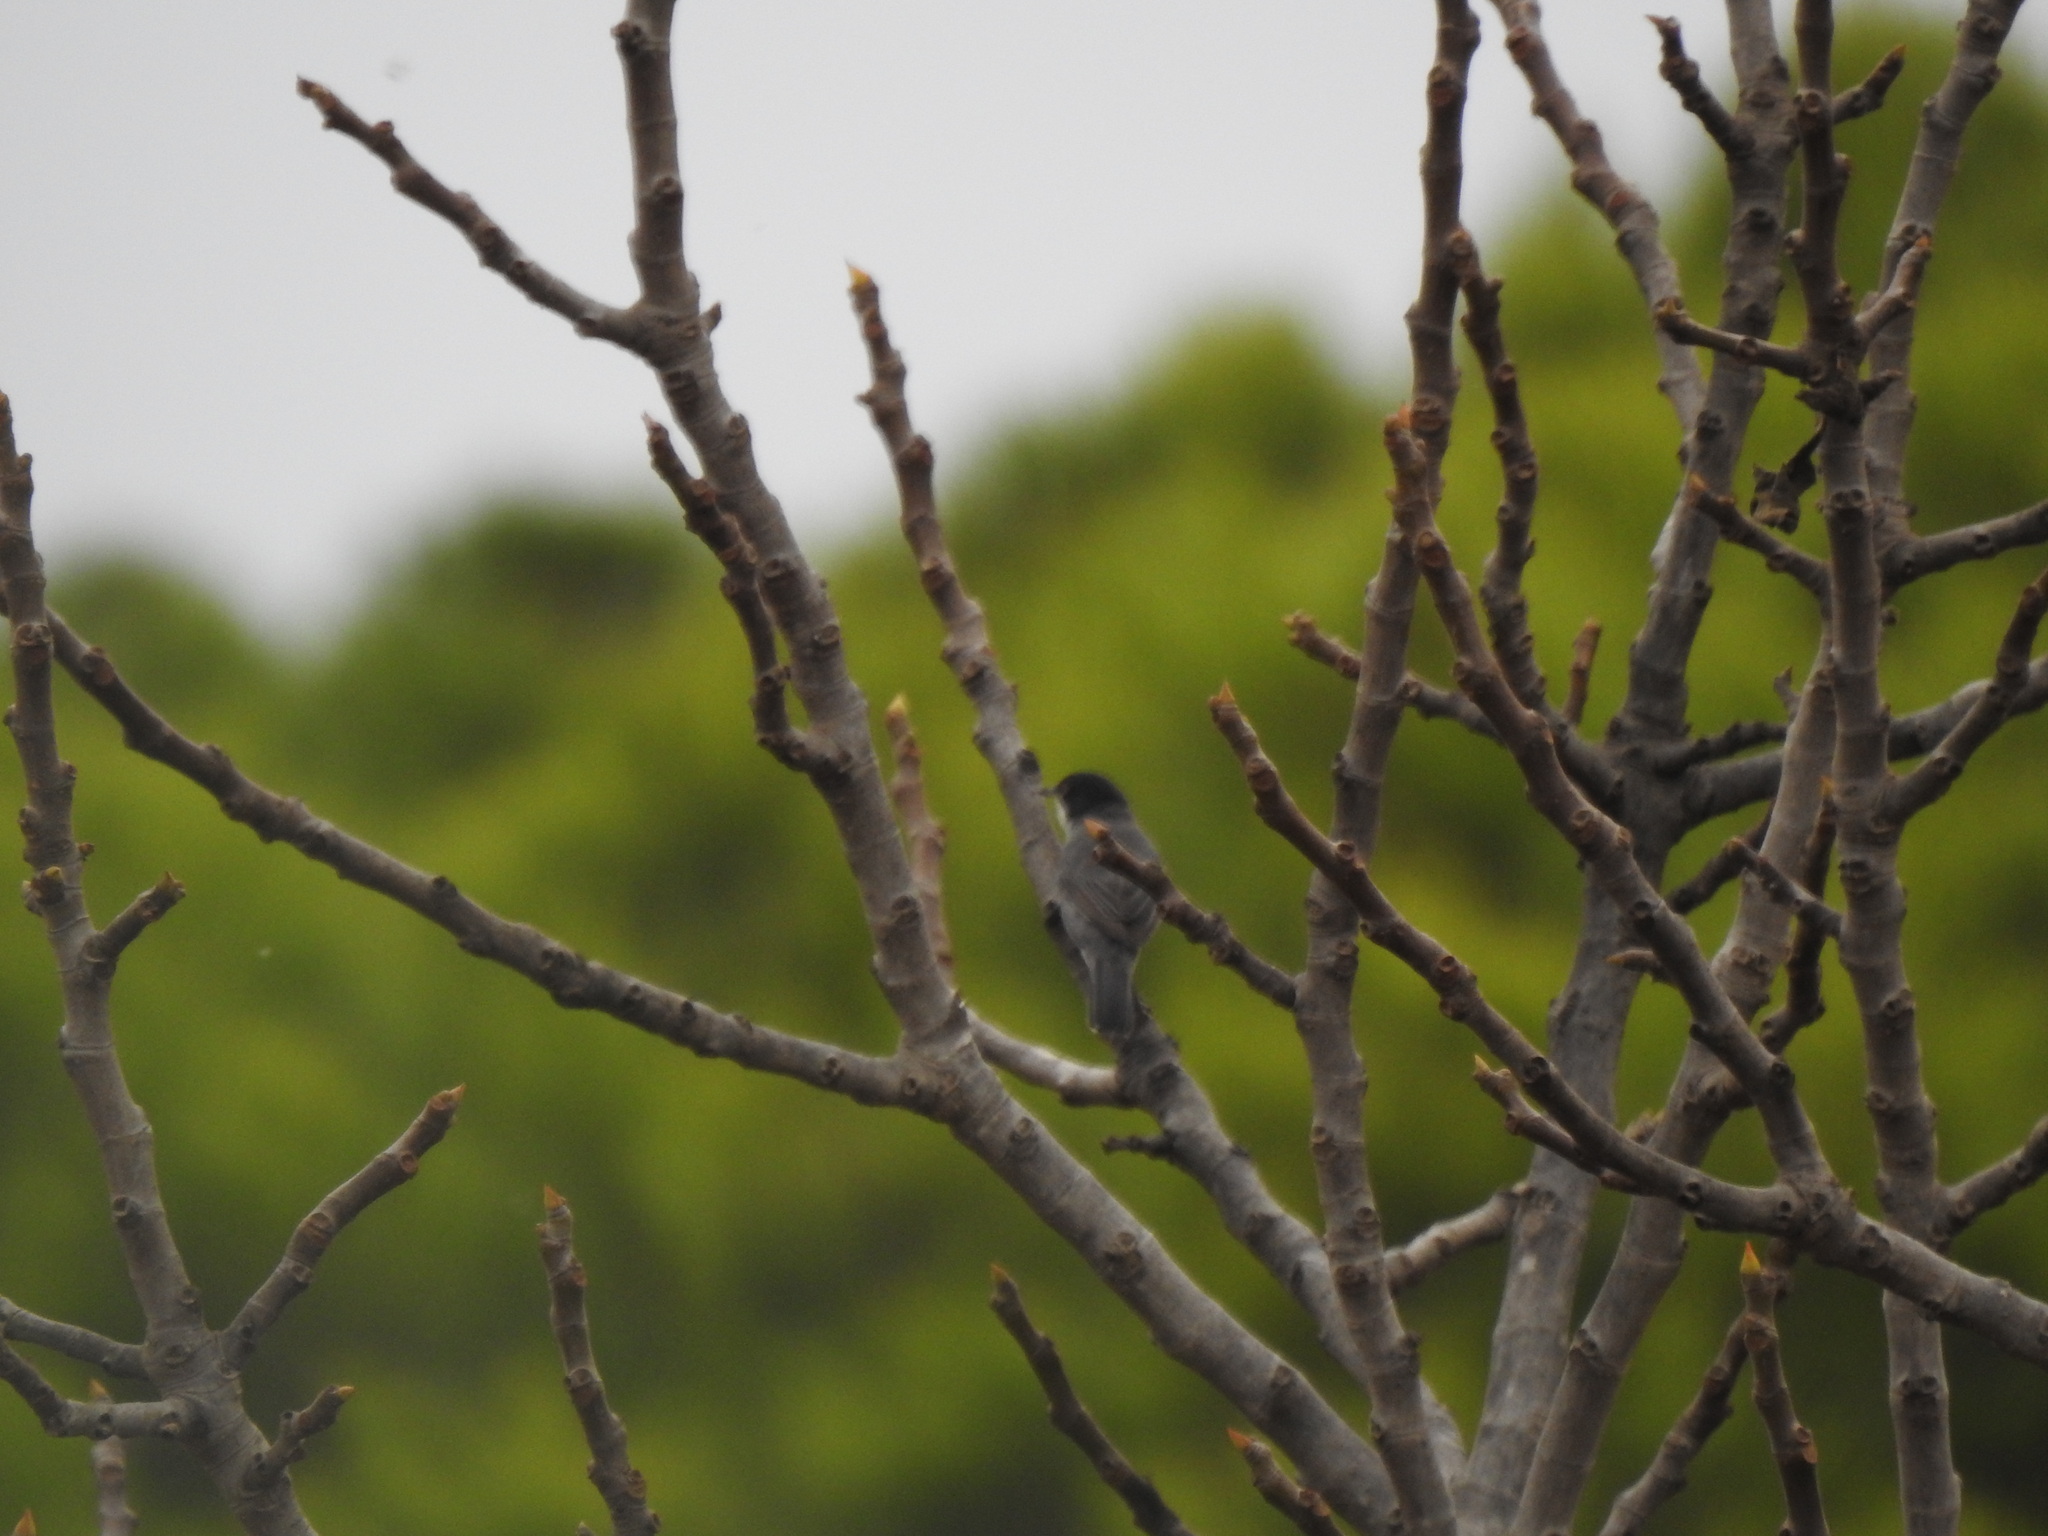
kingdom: Animalia
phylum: Chordata
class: Aves
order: Passeriformes
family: Sylviidae
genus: Curruca
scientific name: Curruca melanocephala
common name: Sardinian warbler
